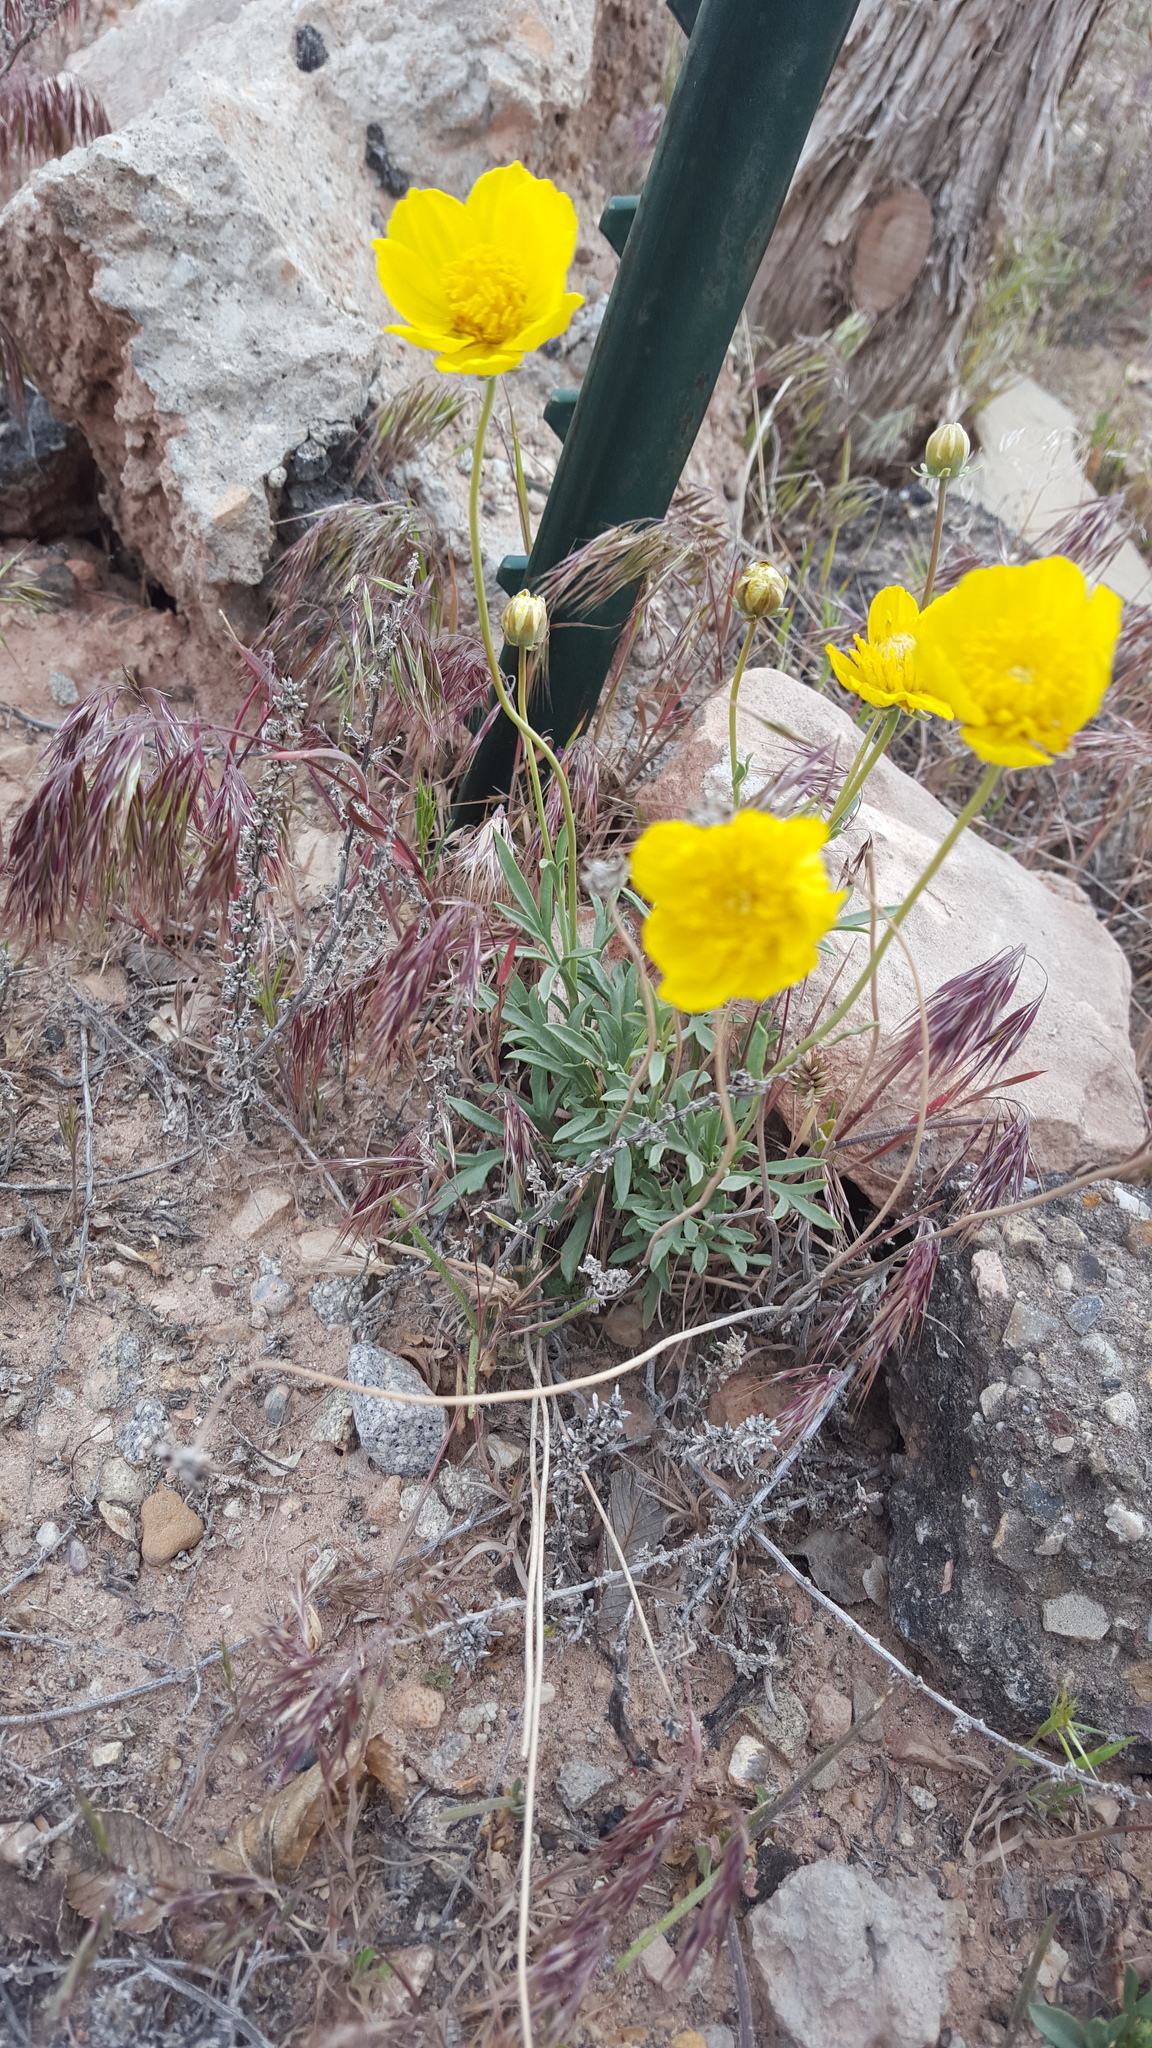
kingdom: Plantae
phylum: Tracheophyta
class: Magnoliopsida
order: Asterales
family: Asteraceae
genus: Thelesperma
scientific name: Thelesperma subnudum
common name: Navajo tea
